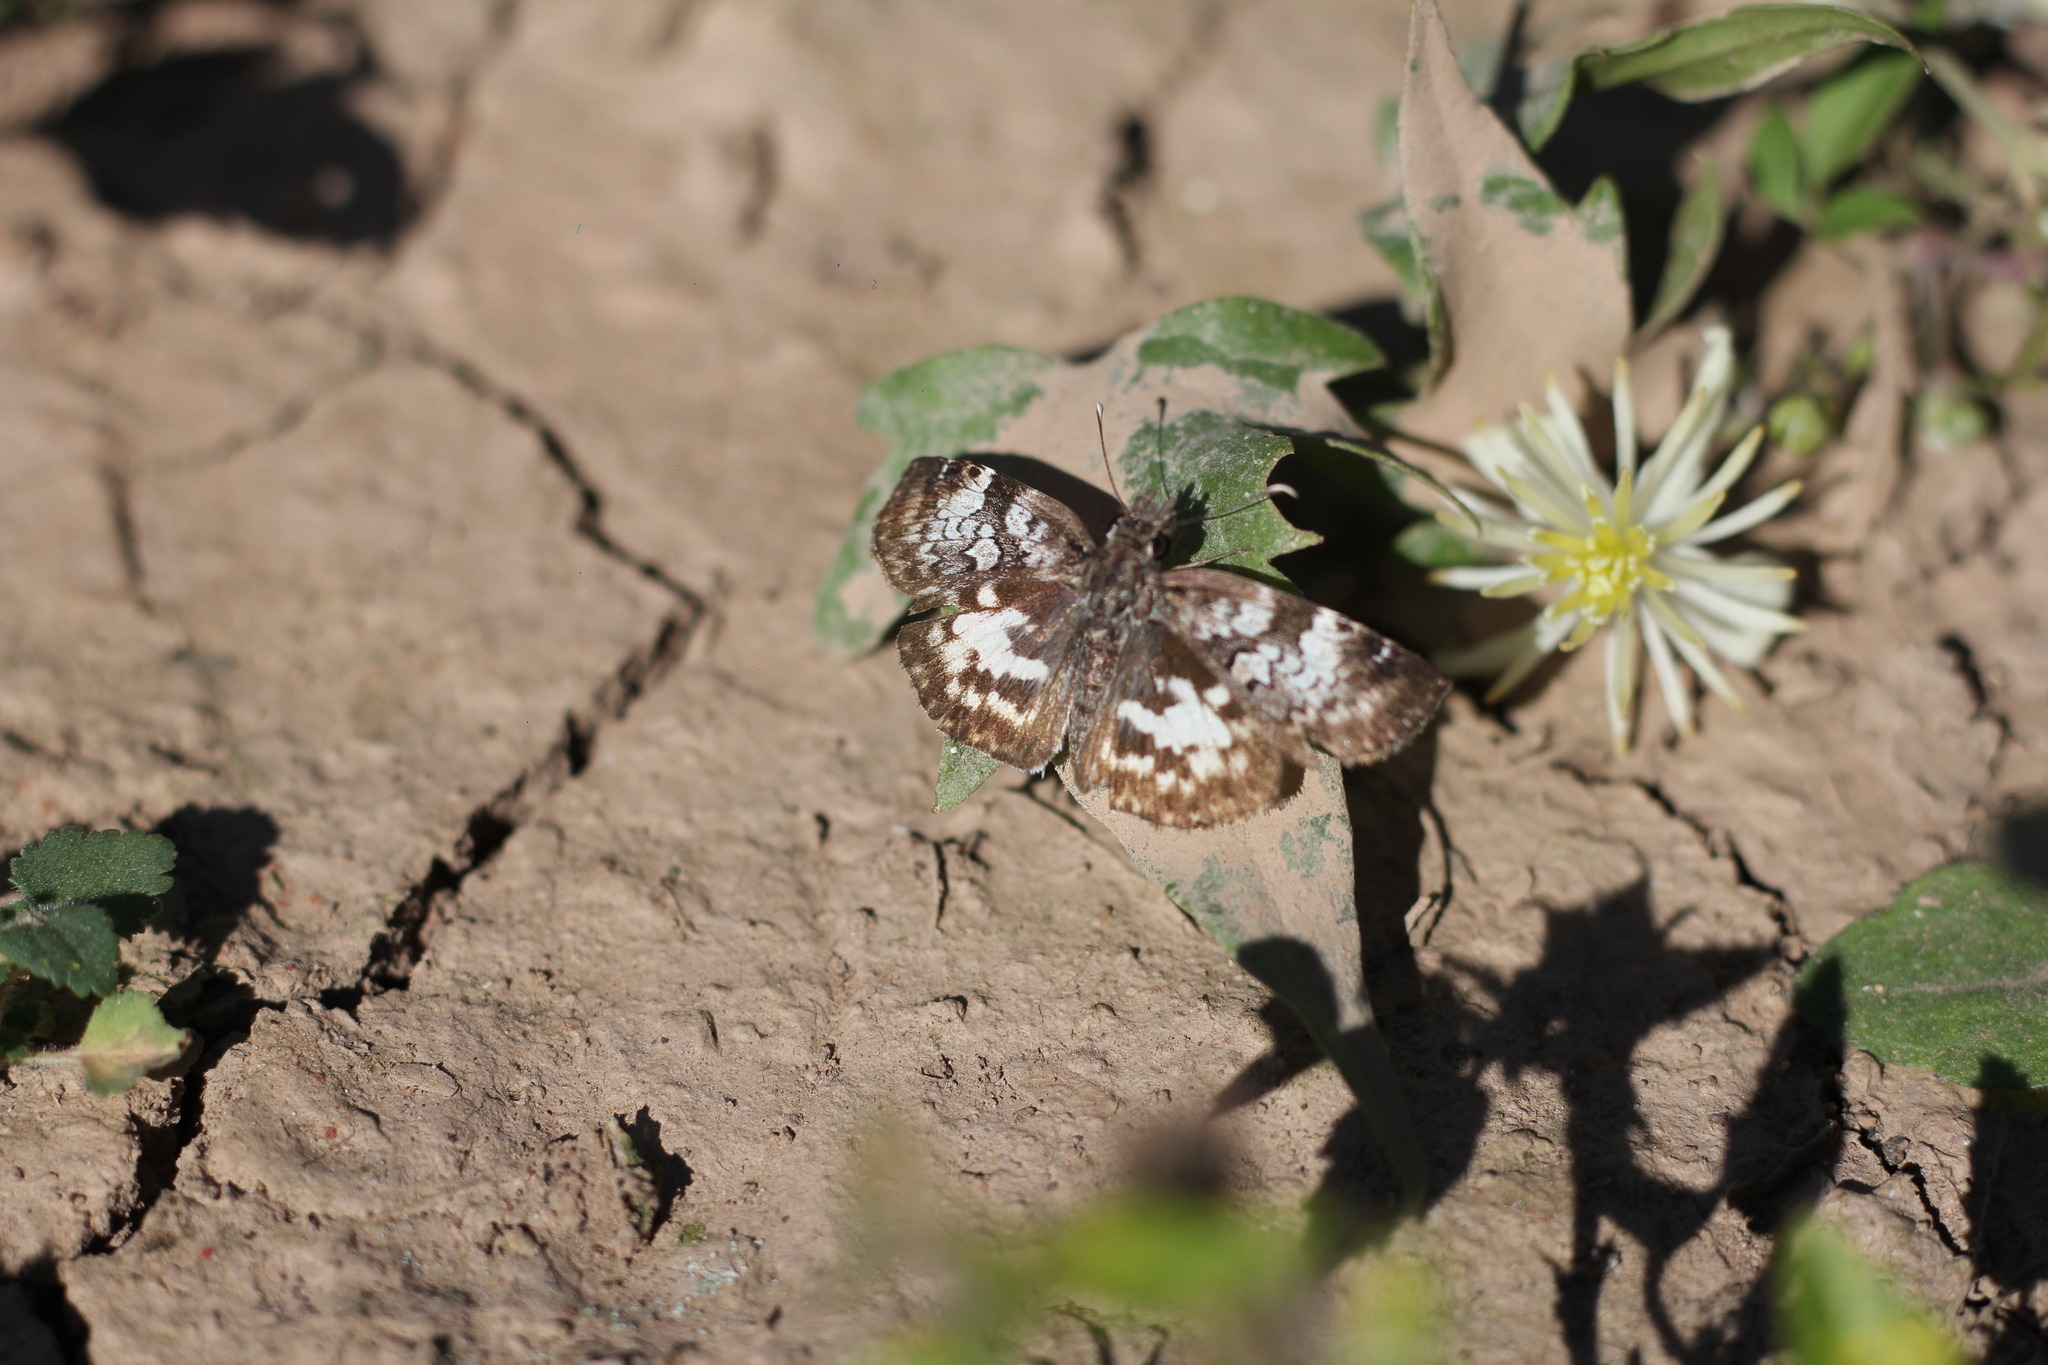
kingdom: Animalia
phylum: Arthropoda
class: Insecta
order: Lepidoptera
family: Hesperiidae
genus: Chiomara
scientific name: Chiomara asychis
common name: White-patterned skipper
